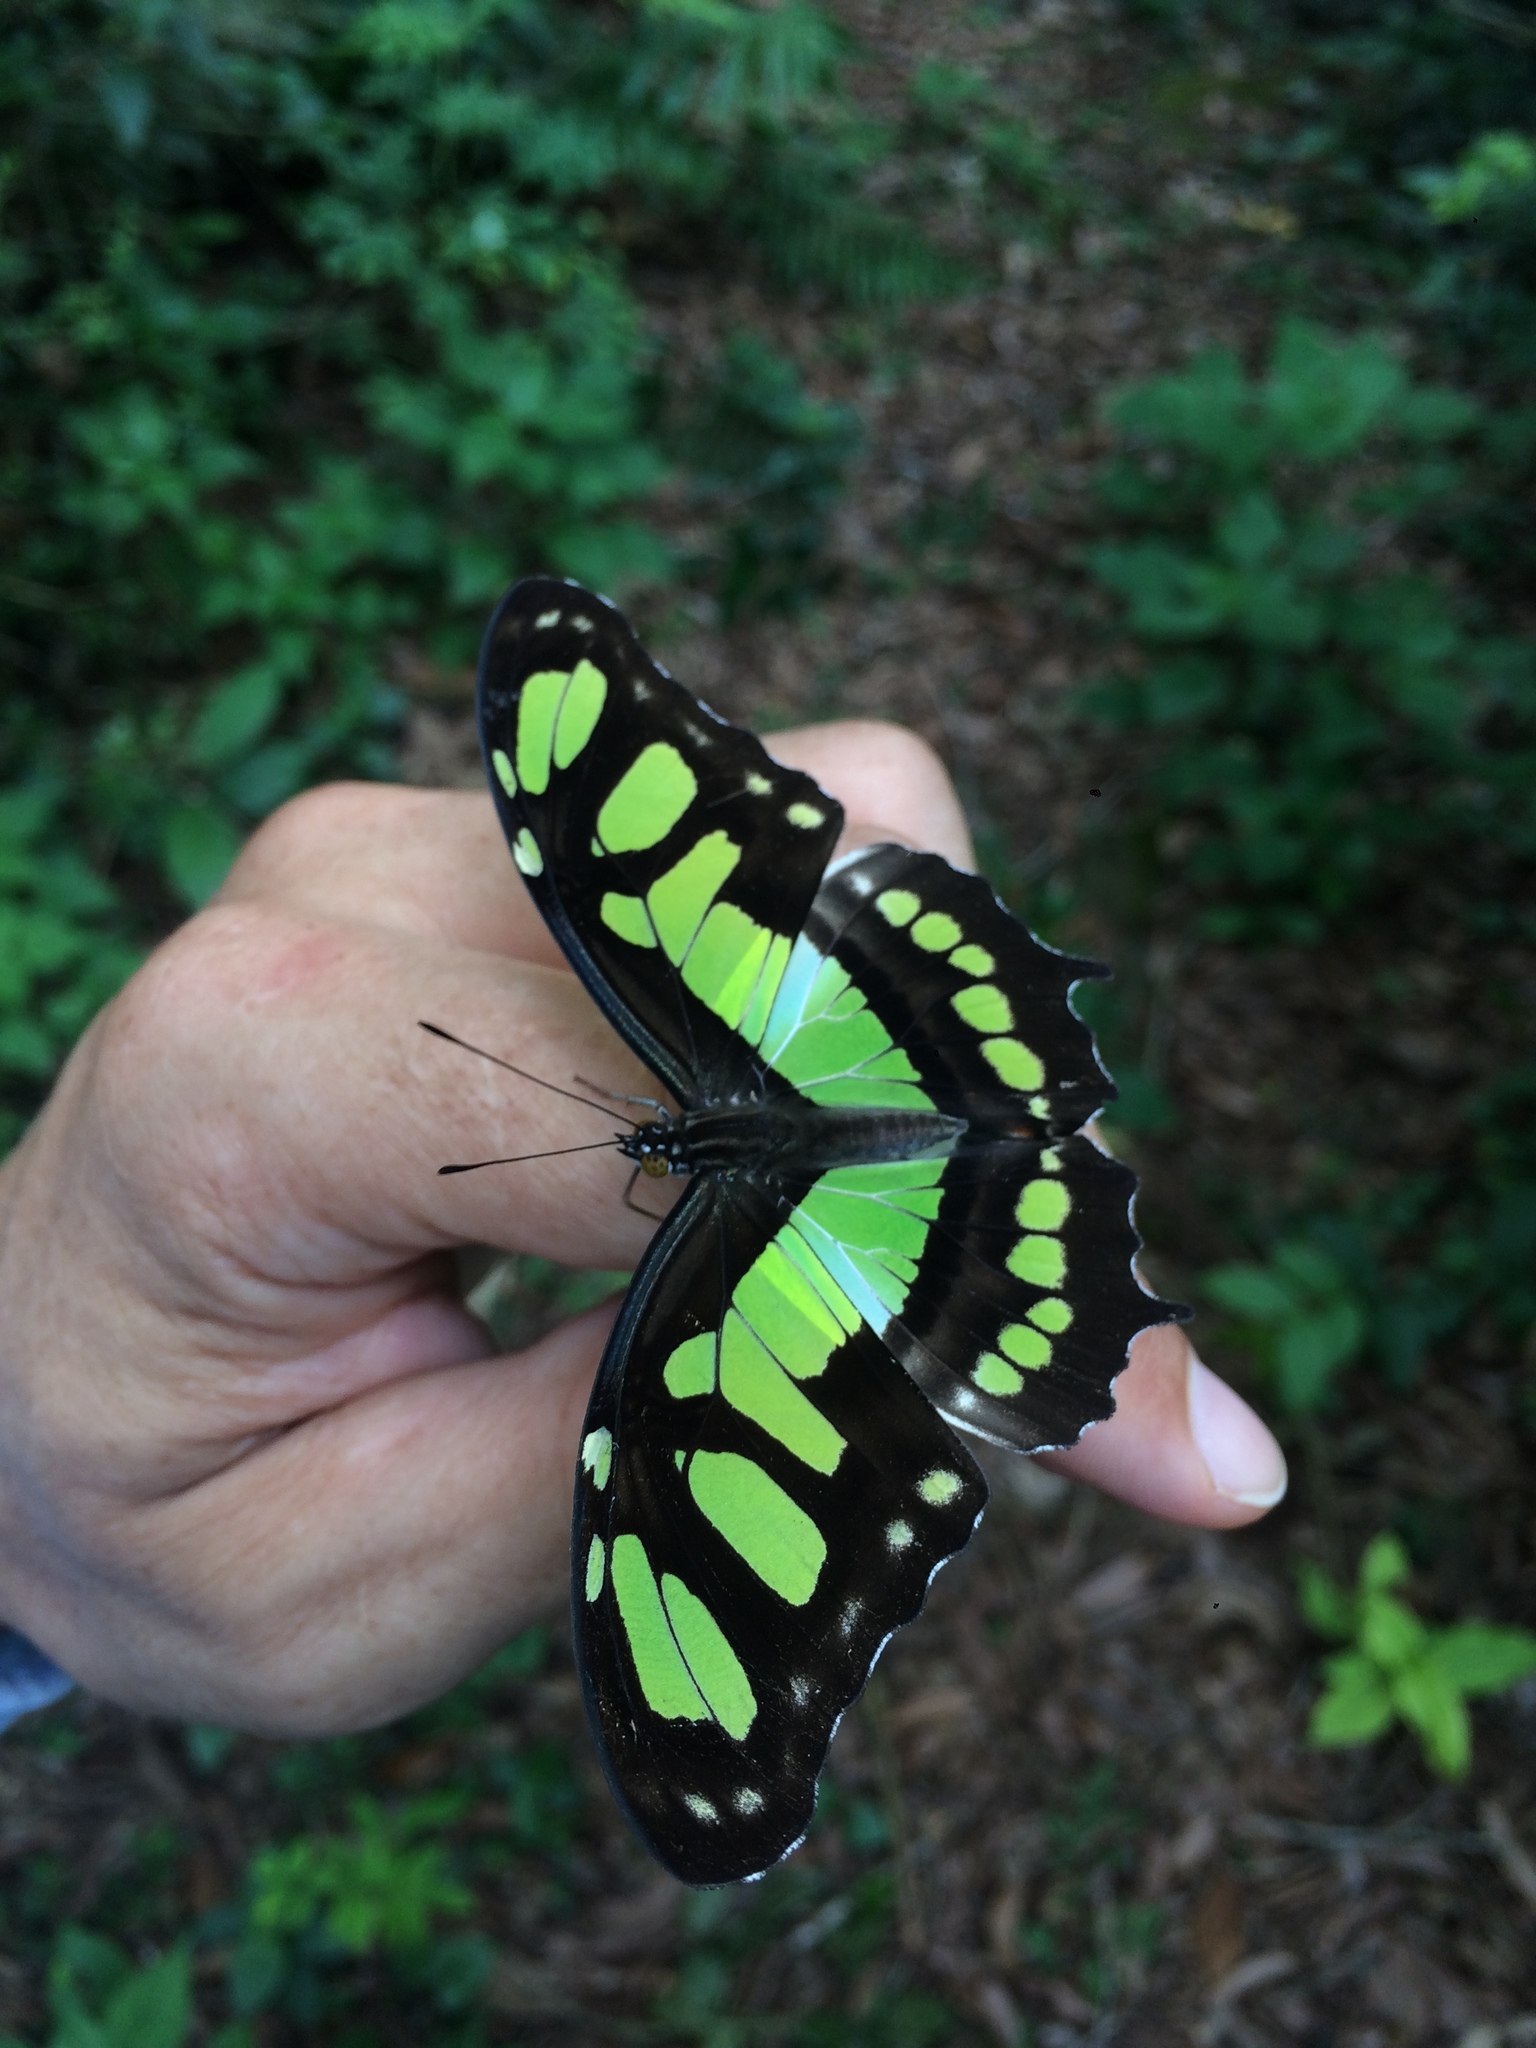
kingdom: Animalia
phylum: Arthropoda
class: Insecta
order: Lepidoptera
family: Nymphalidae
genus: Siproeta
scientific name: Siproeta stelenes
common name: Malachite
